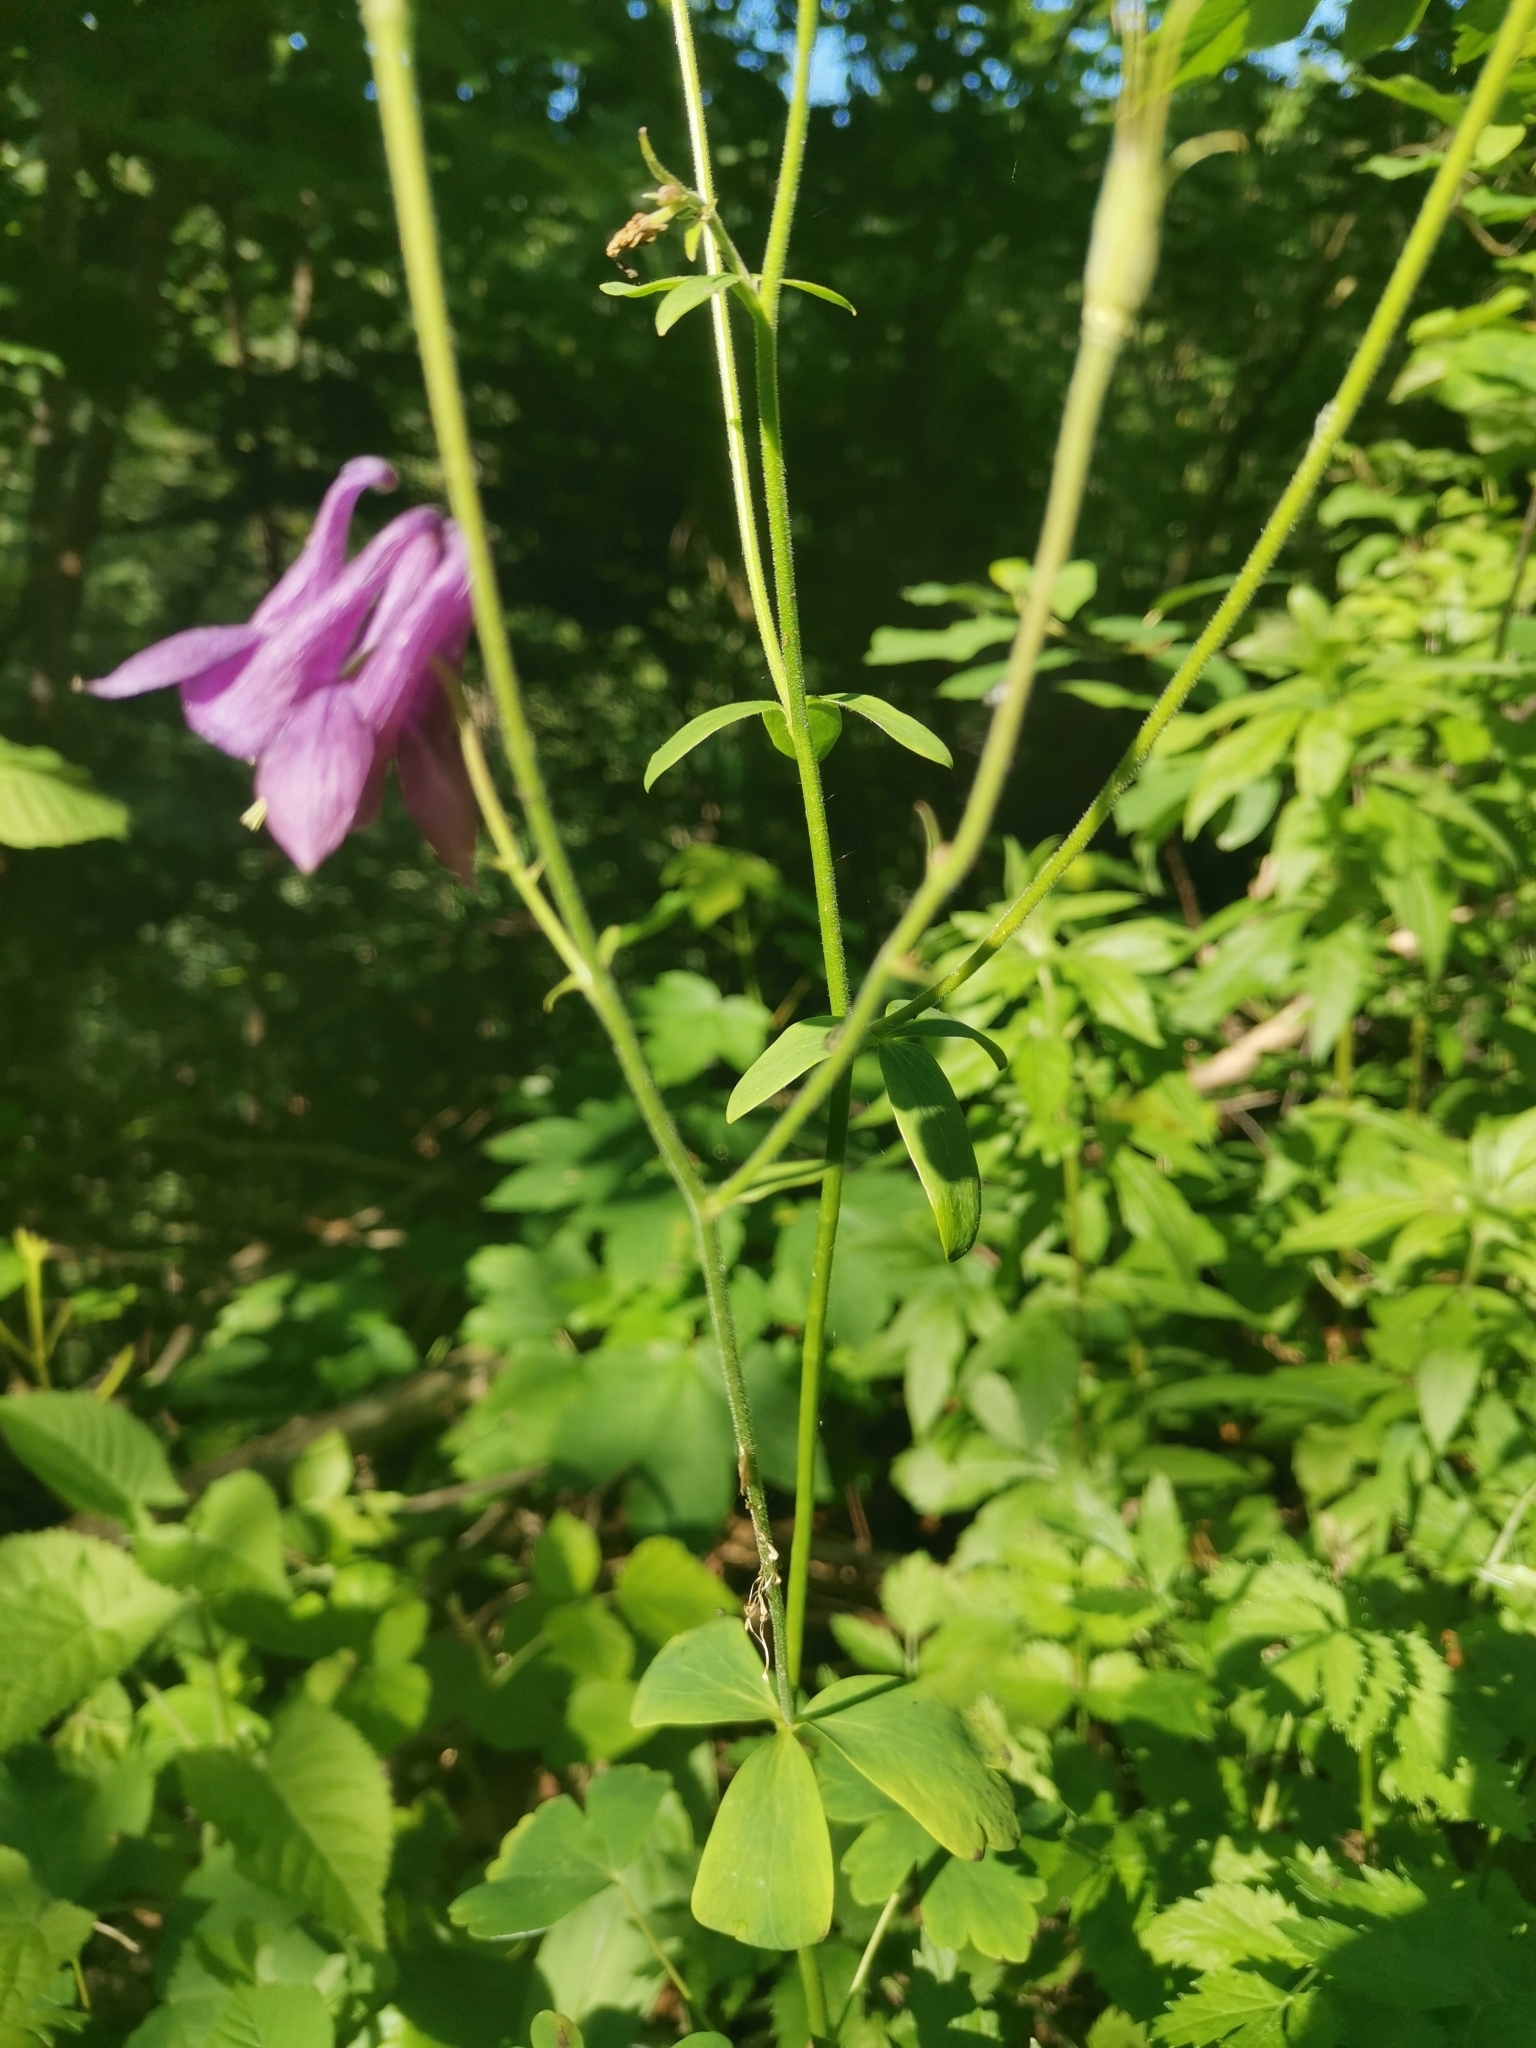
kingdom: Plantae
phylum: Tracheophyta
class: Magnoliopsida
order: Ranunculales
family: Ranunculaceae
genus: Aquilegia
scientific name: Aquilegia atrata
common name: Dark columbine
